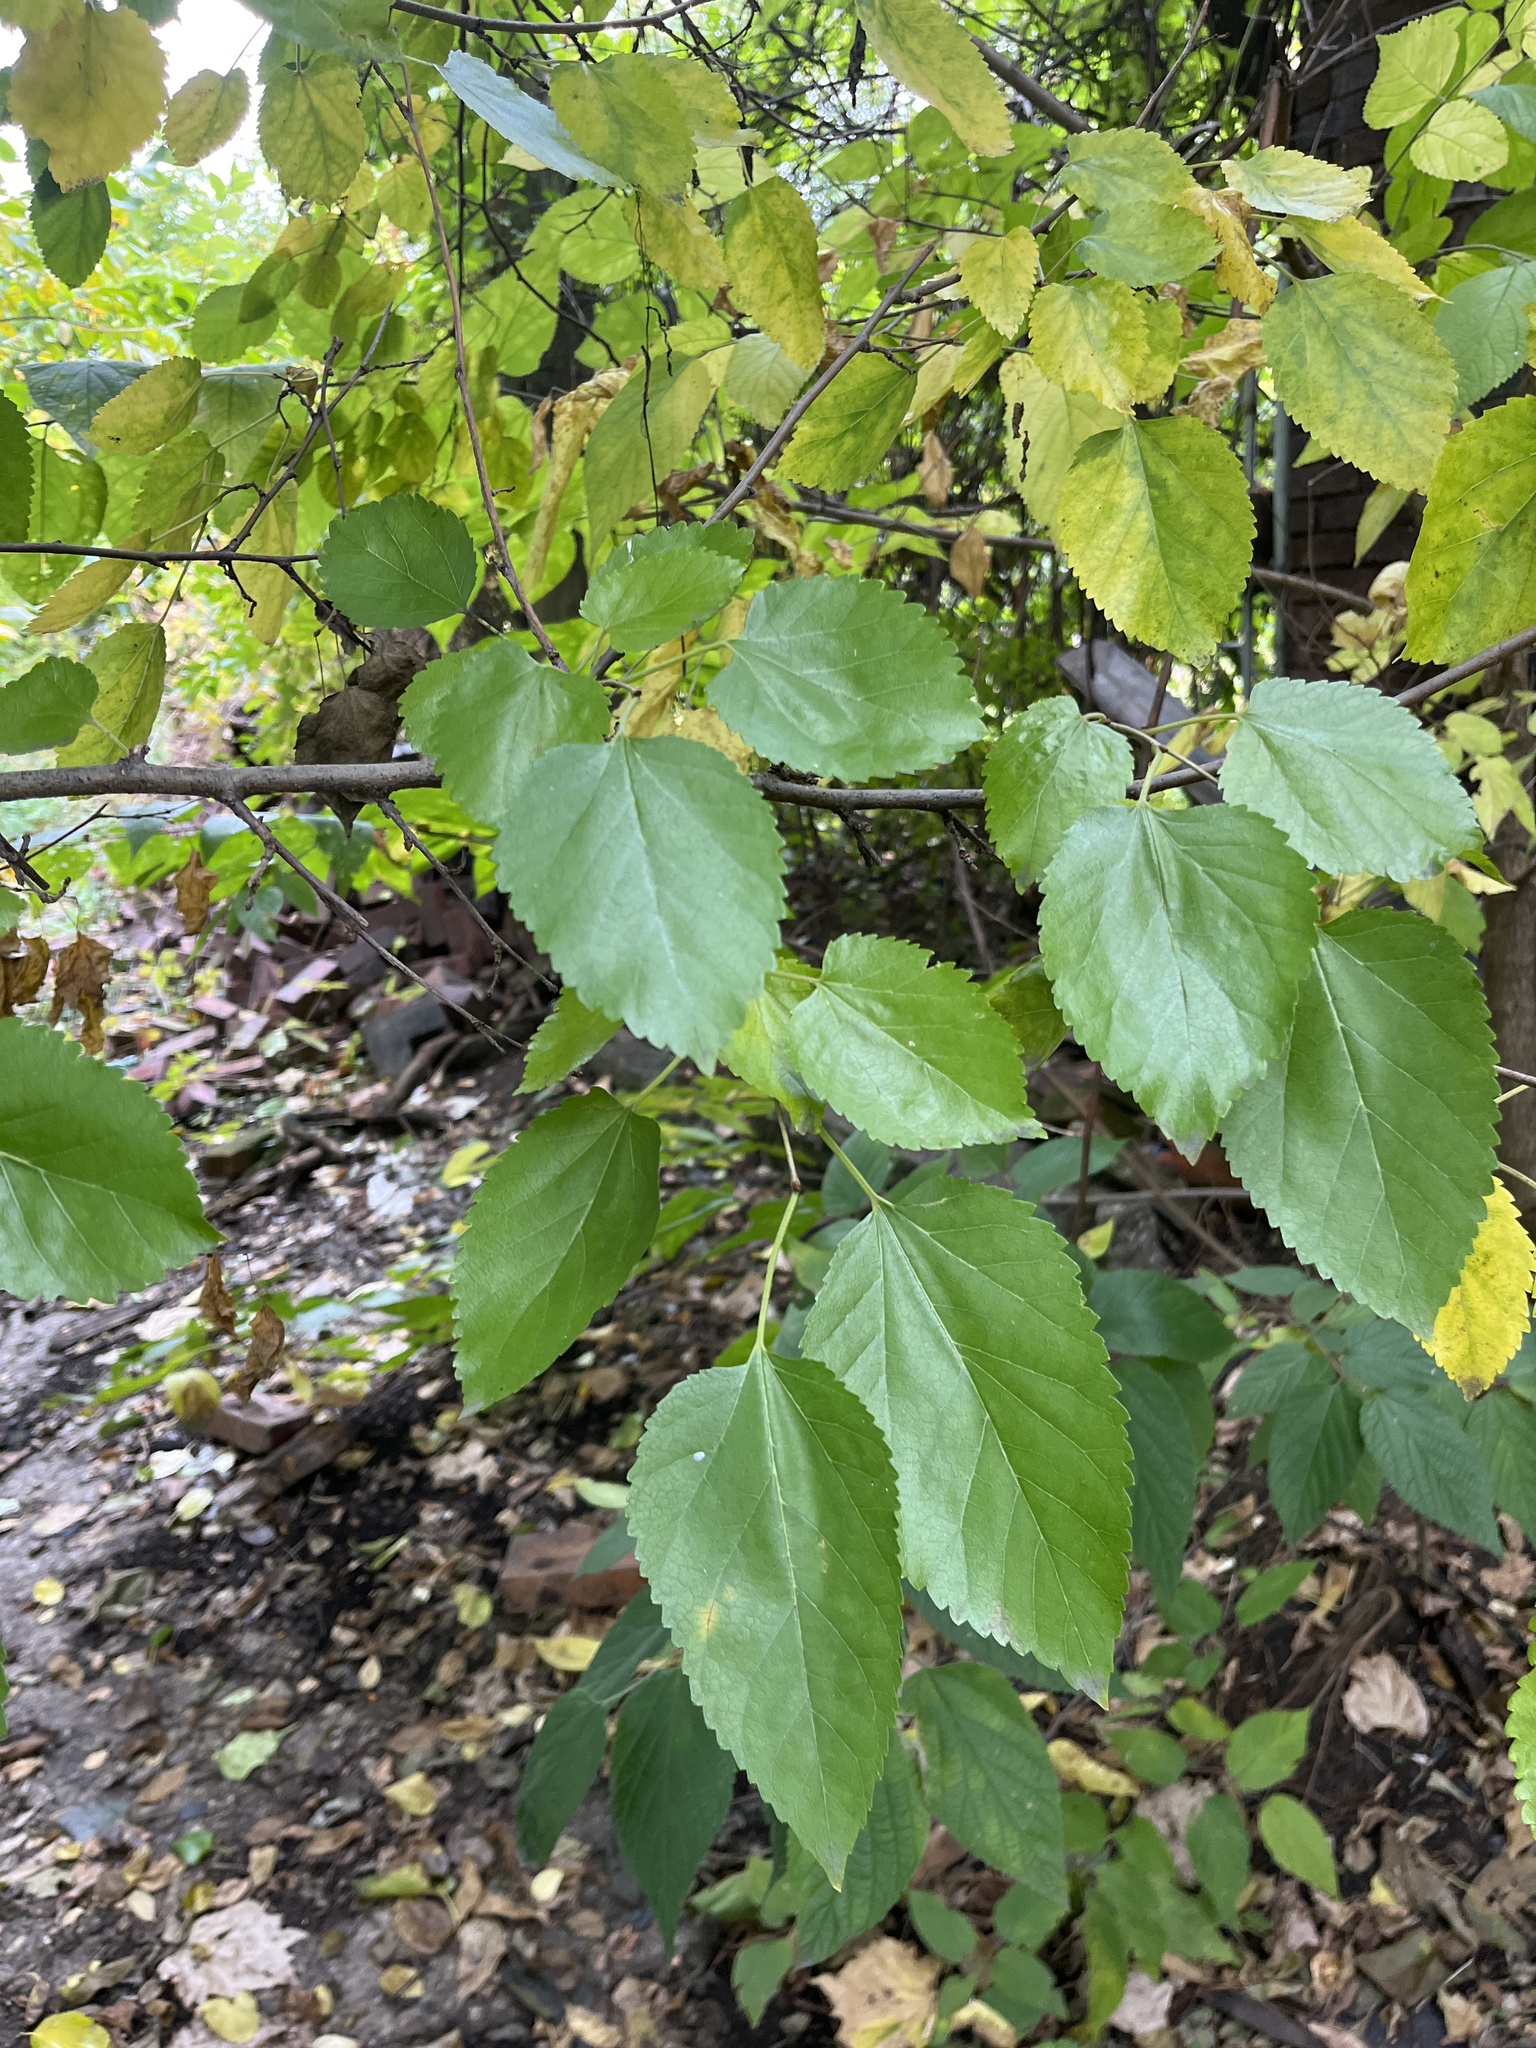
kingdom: Plantae
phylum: Tracheophyta
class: Magnoliopsida
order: Rosales
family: Moraceae
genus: Morus
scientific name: Morus alba
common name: White mulberry
